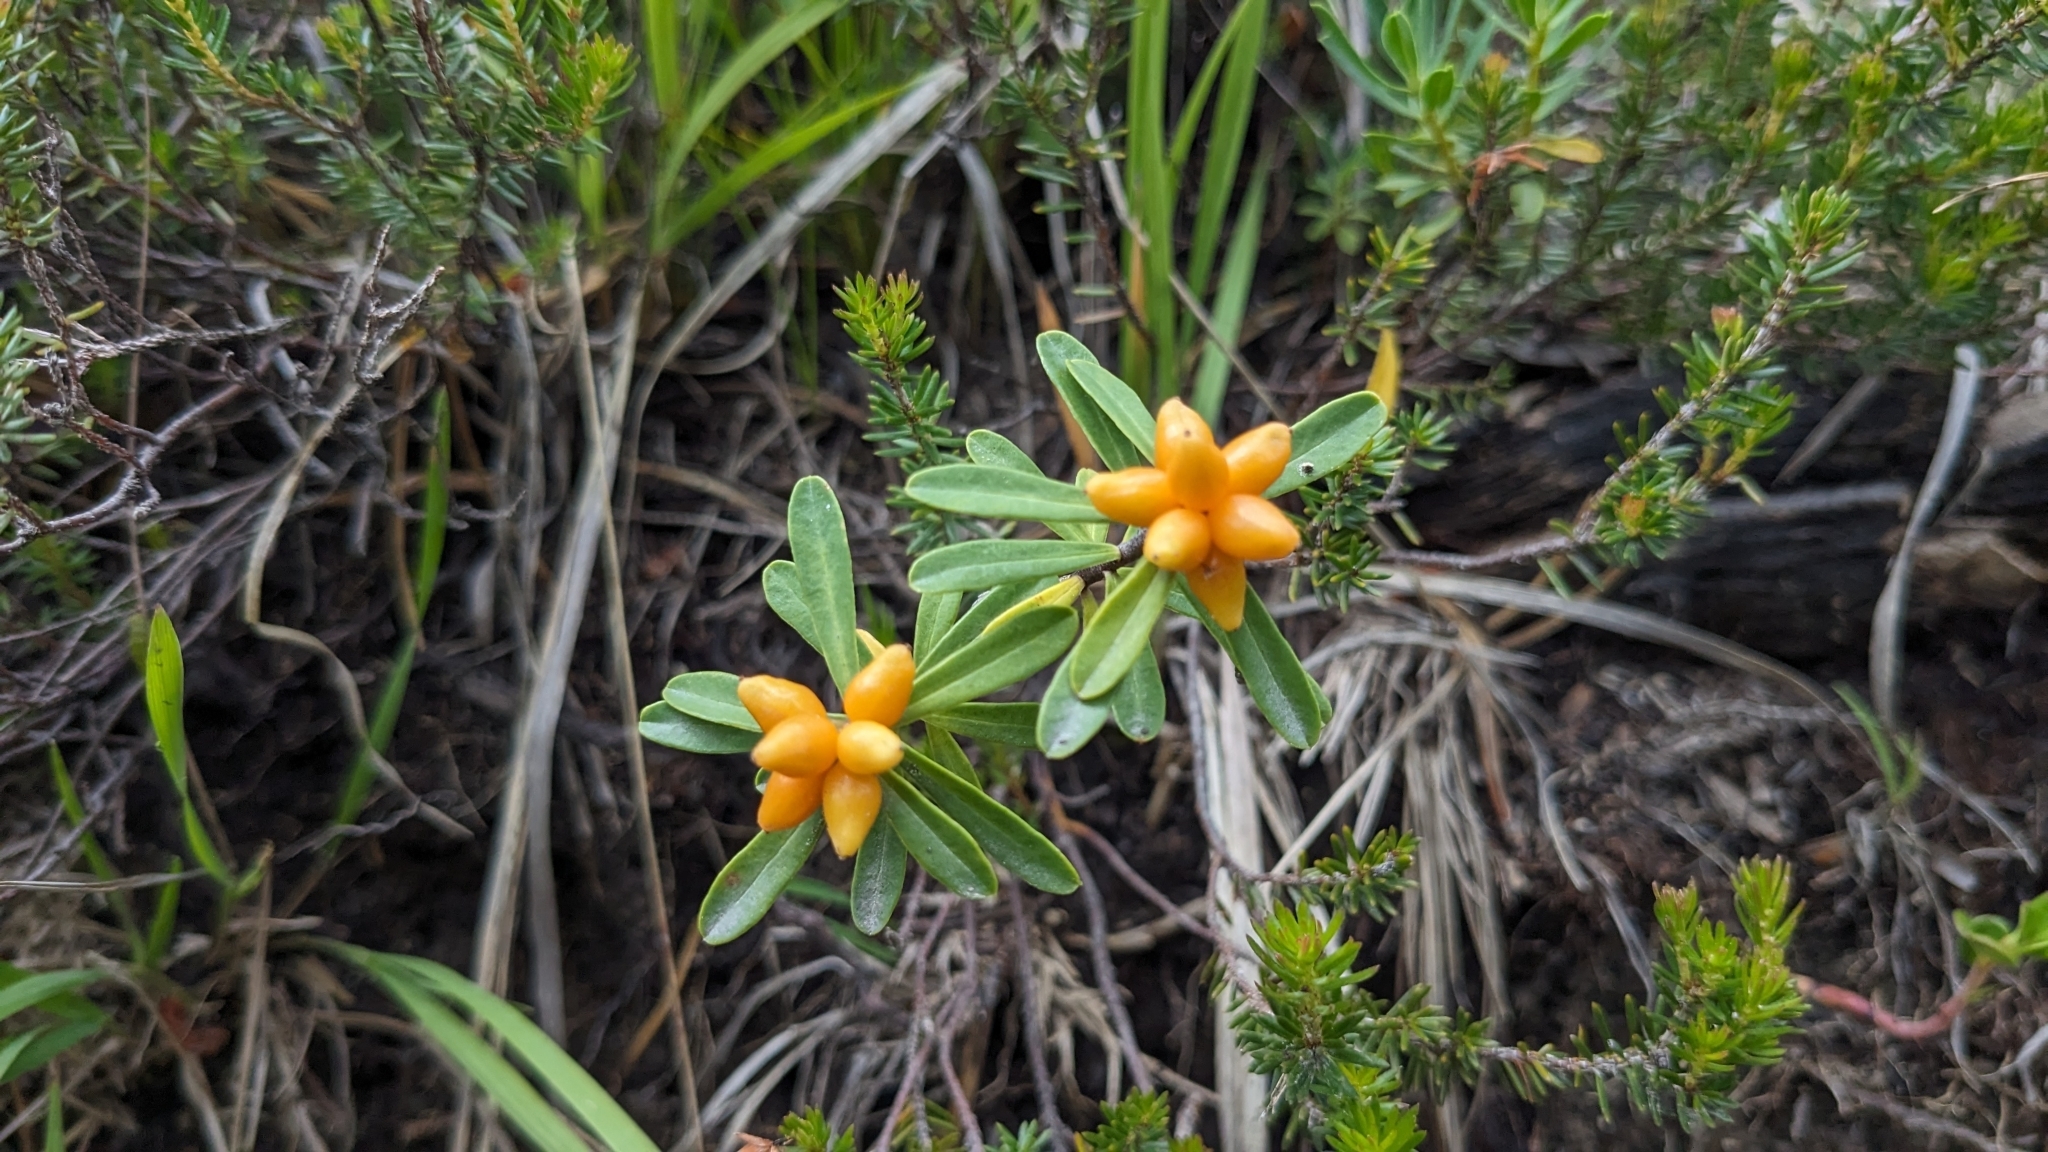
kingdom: Plantae
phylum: Tracheophyta
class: Magnoliopsida
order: Malvales
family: Thymelaeaceae
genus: Daphne
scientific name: Daphne striata
